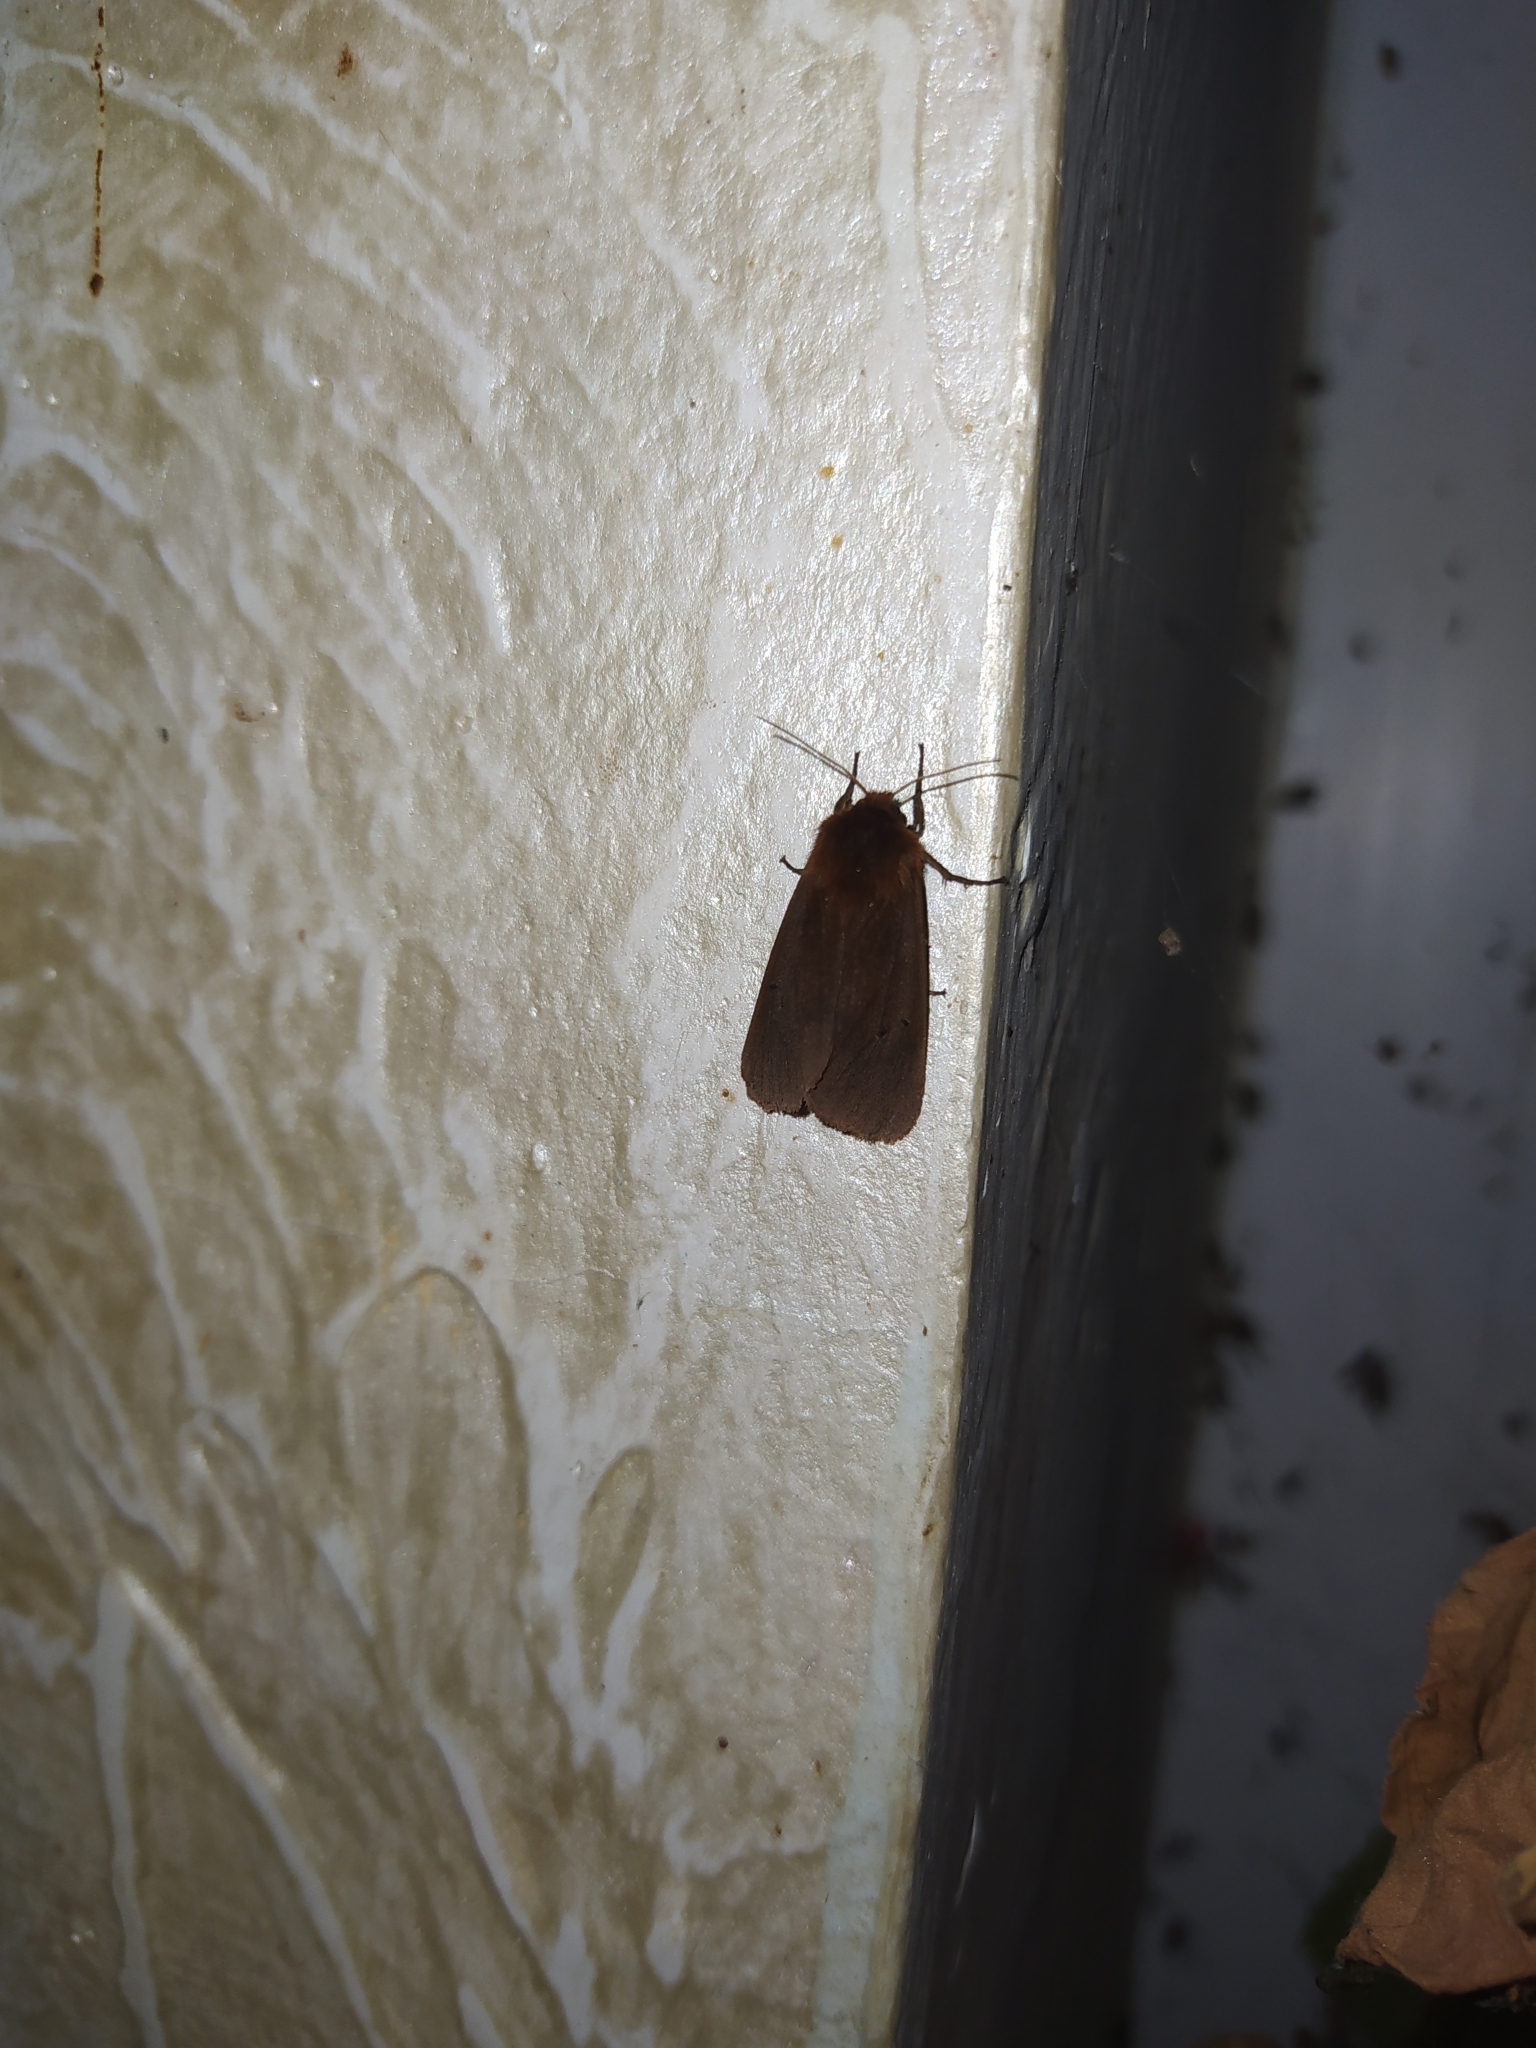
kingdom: Animalia
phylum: Arthropoda
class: Insecta
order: Lepidoptera
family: Erebidae
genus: Phragmatobia
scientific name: Phragmatobia fuliginosa
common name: Ruby tiger
